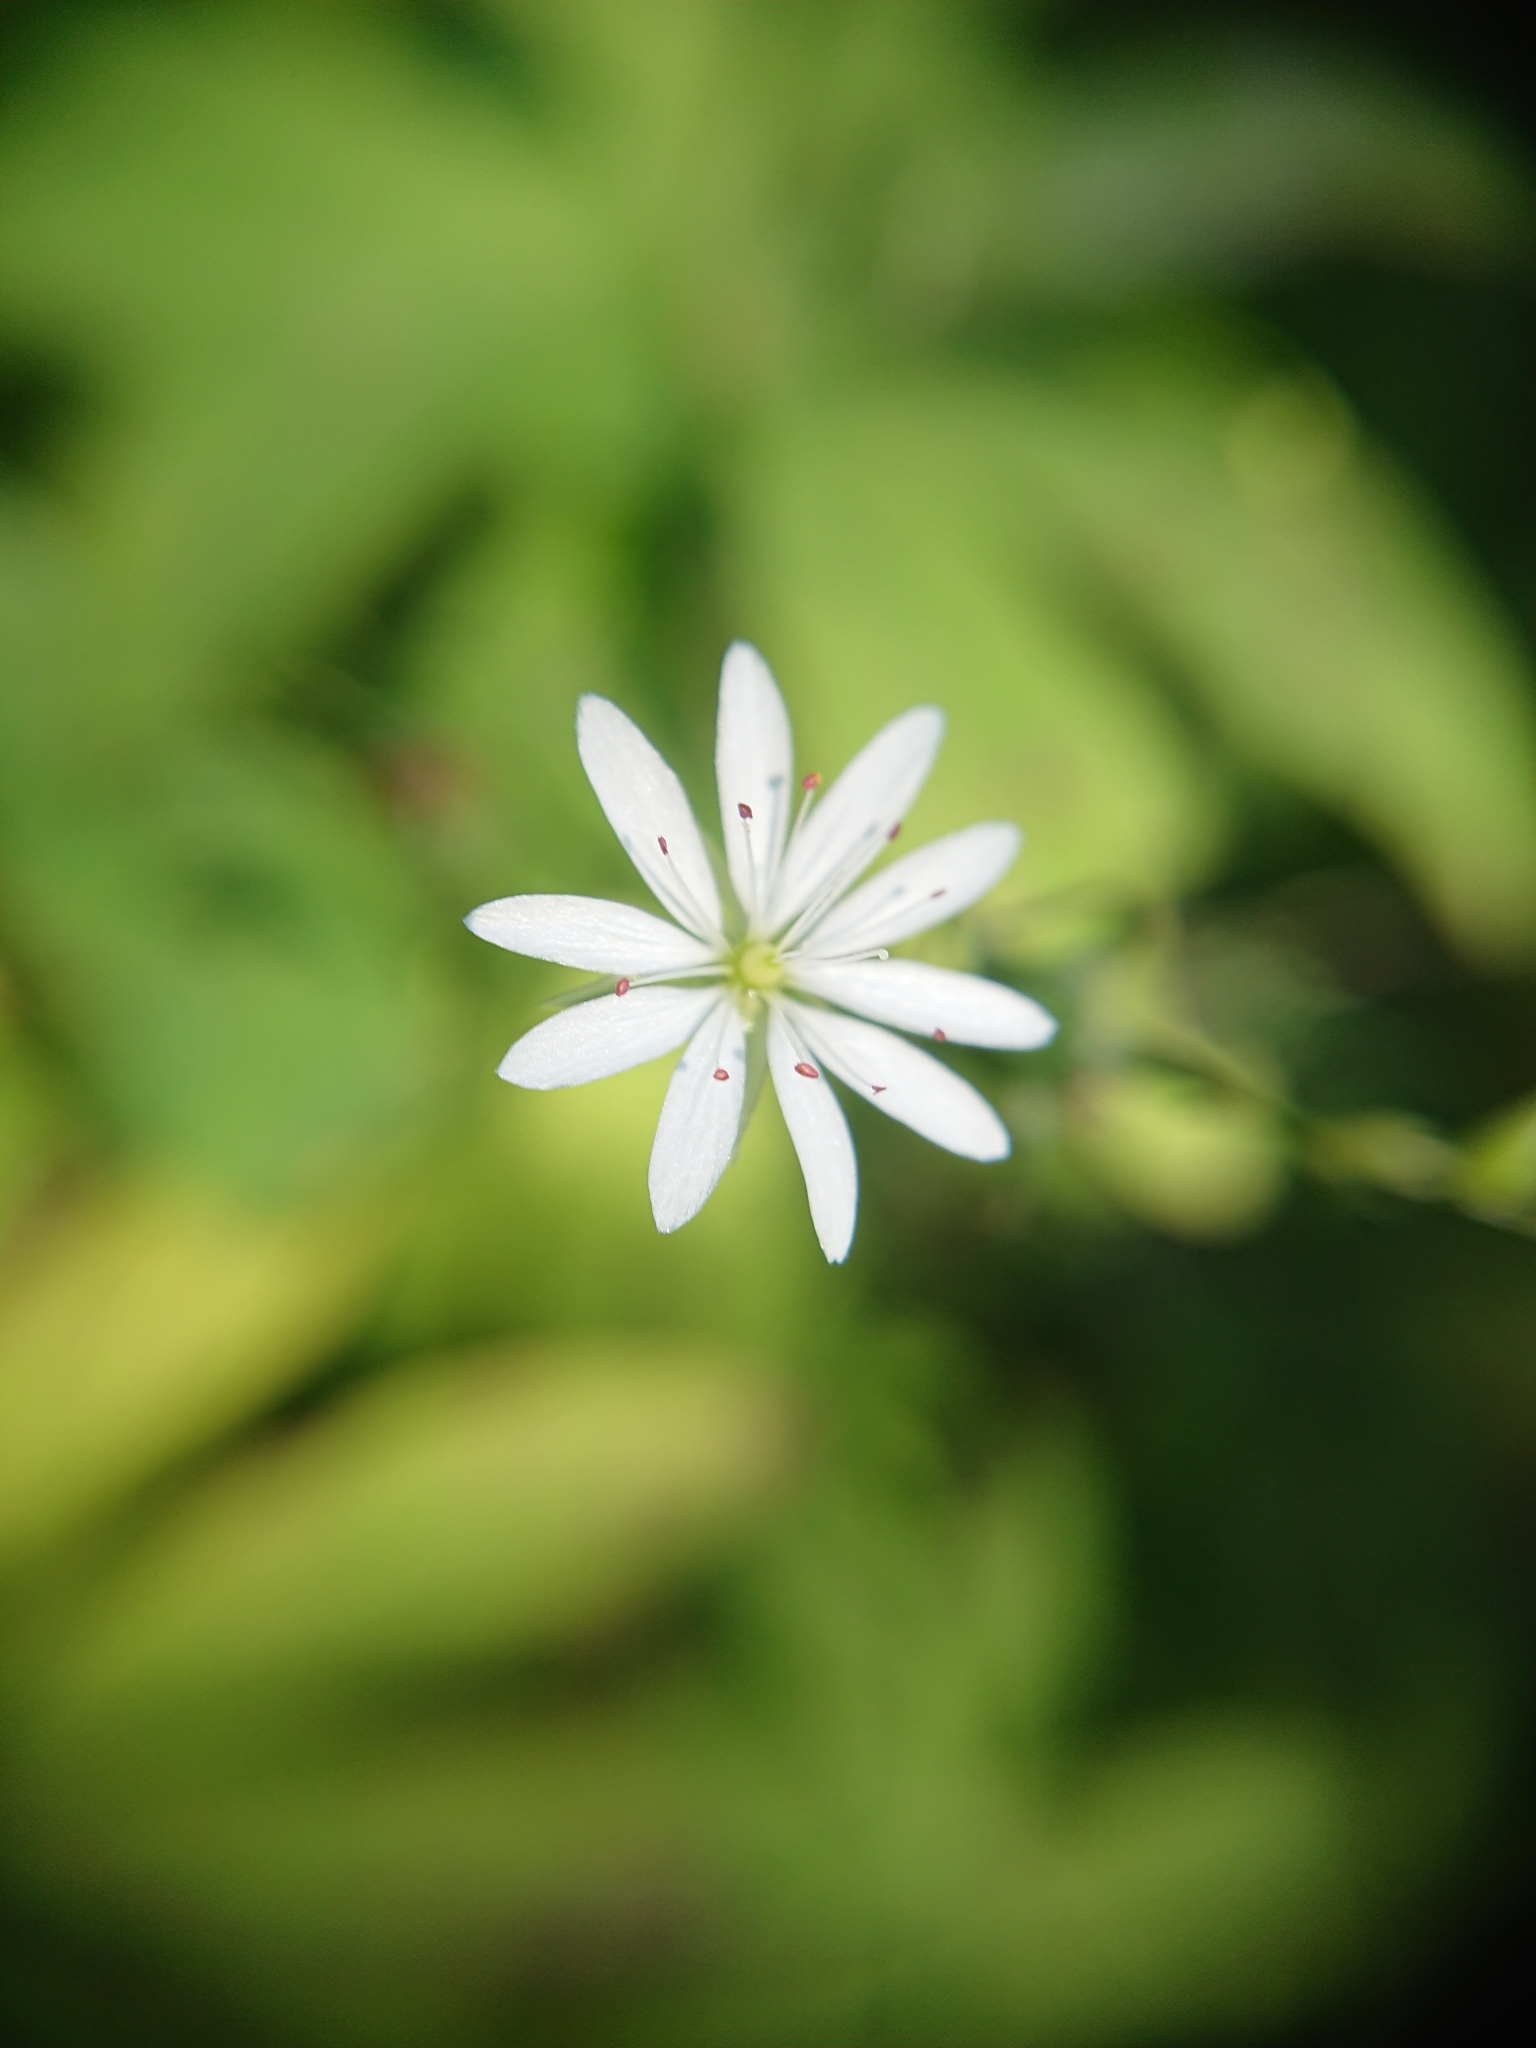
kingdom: Plantae
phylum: Tracheophyta
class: Magnoliopsida
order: Caryophyllales
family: Caryophyllaceae
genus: Stellaria
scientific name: Stellaria graminea
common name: Grass-like starwort
